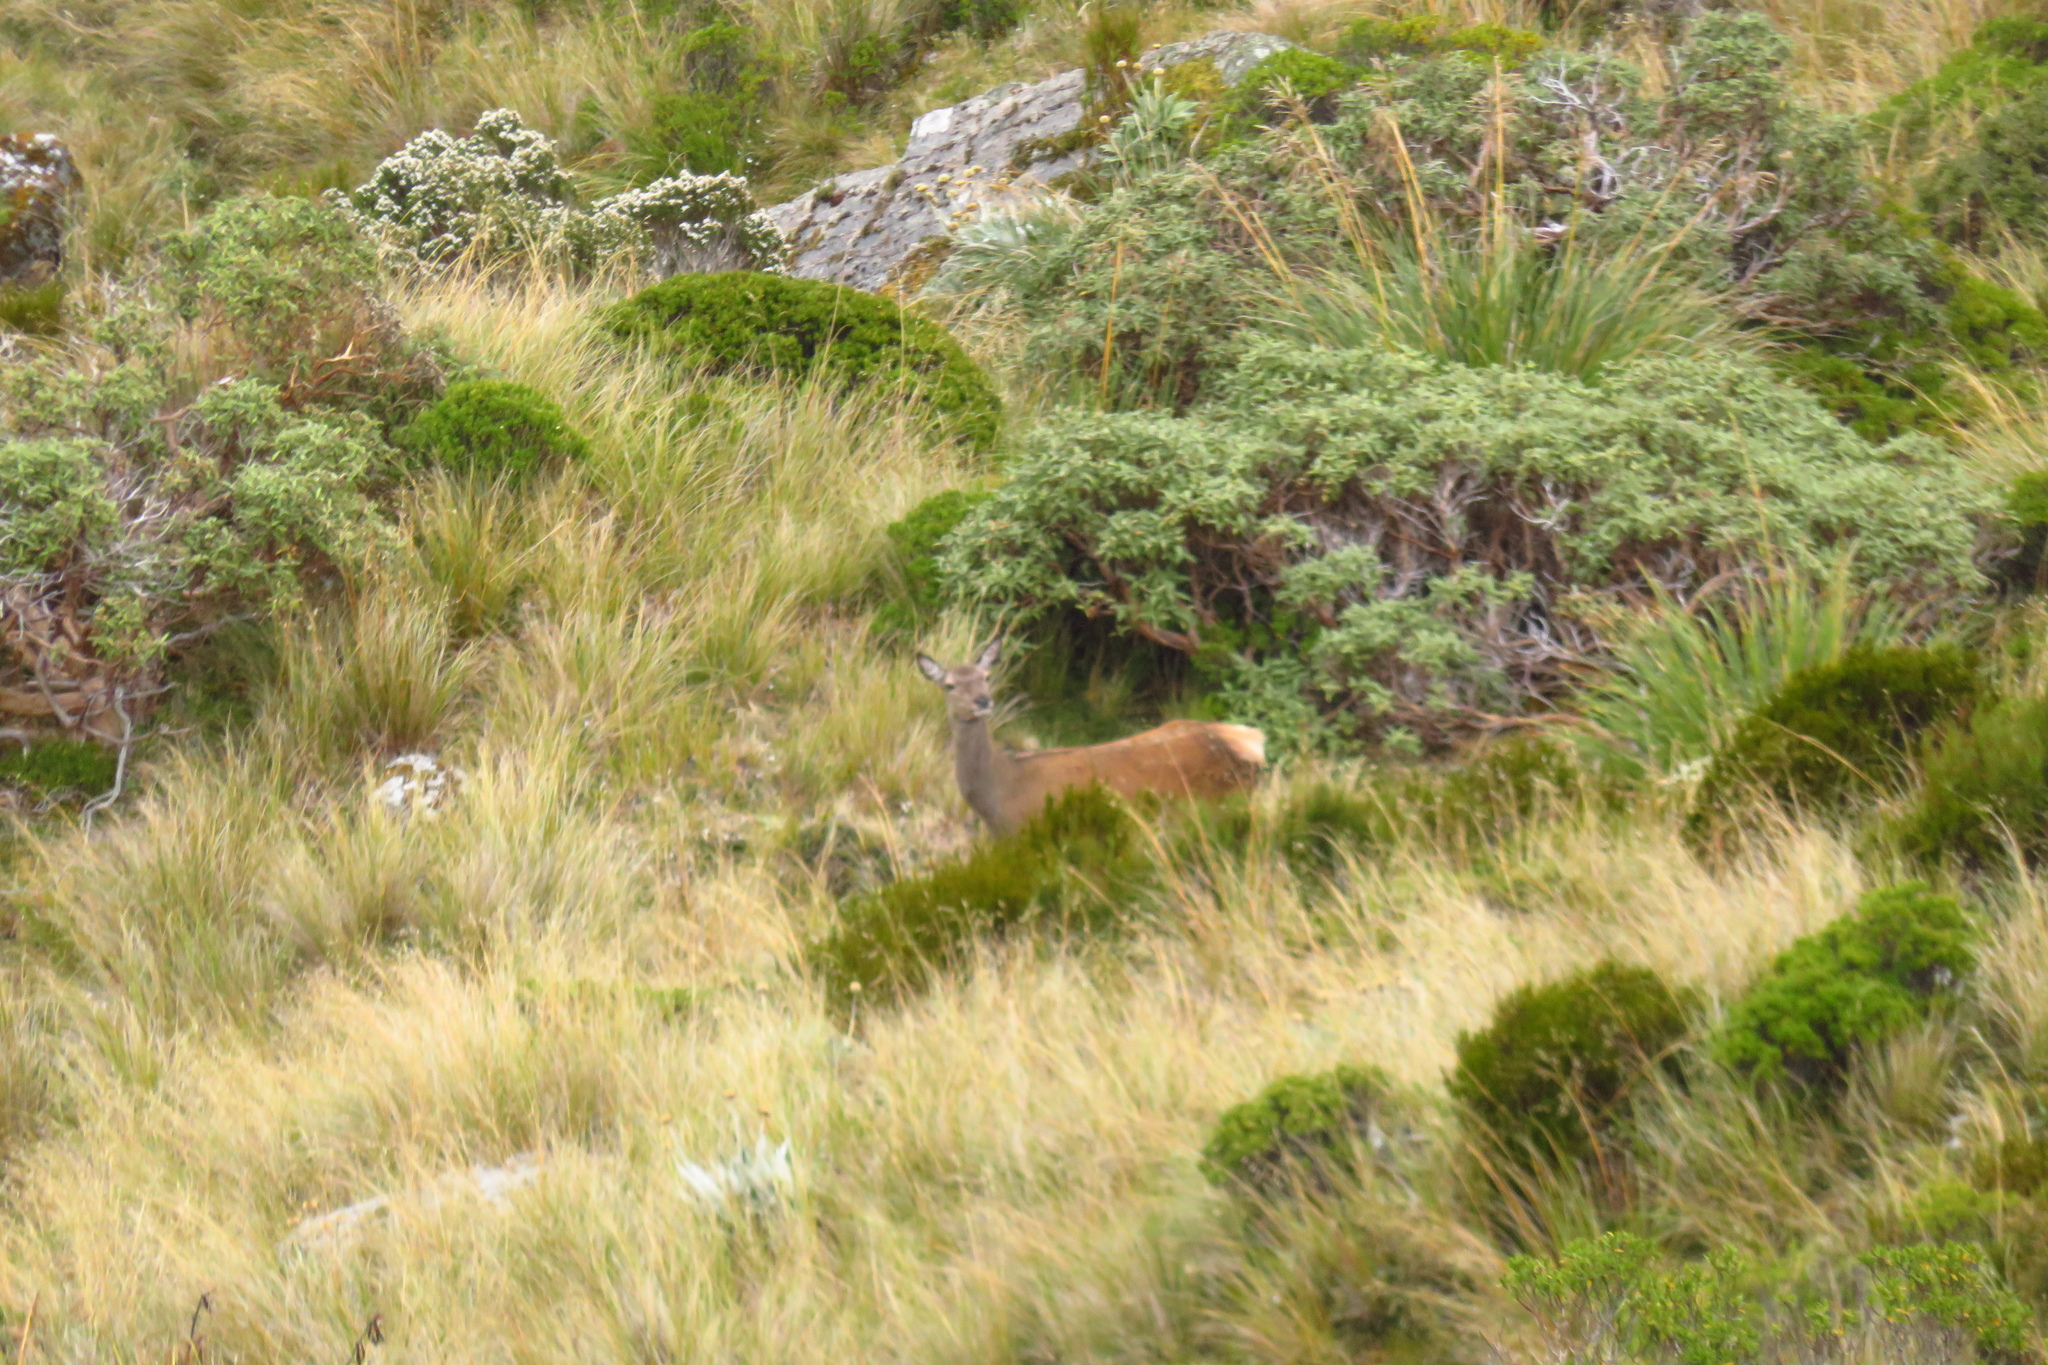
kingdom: Animalia
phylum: Chordata
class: Mammalia
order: Artiodactyla
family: Cervidae
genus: Cervus
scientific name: Cervus elaphus
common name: Red deer
